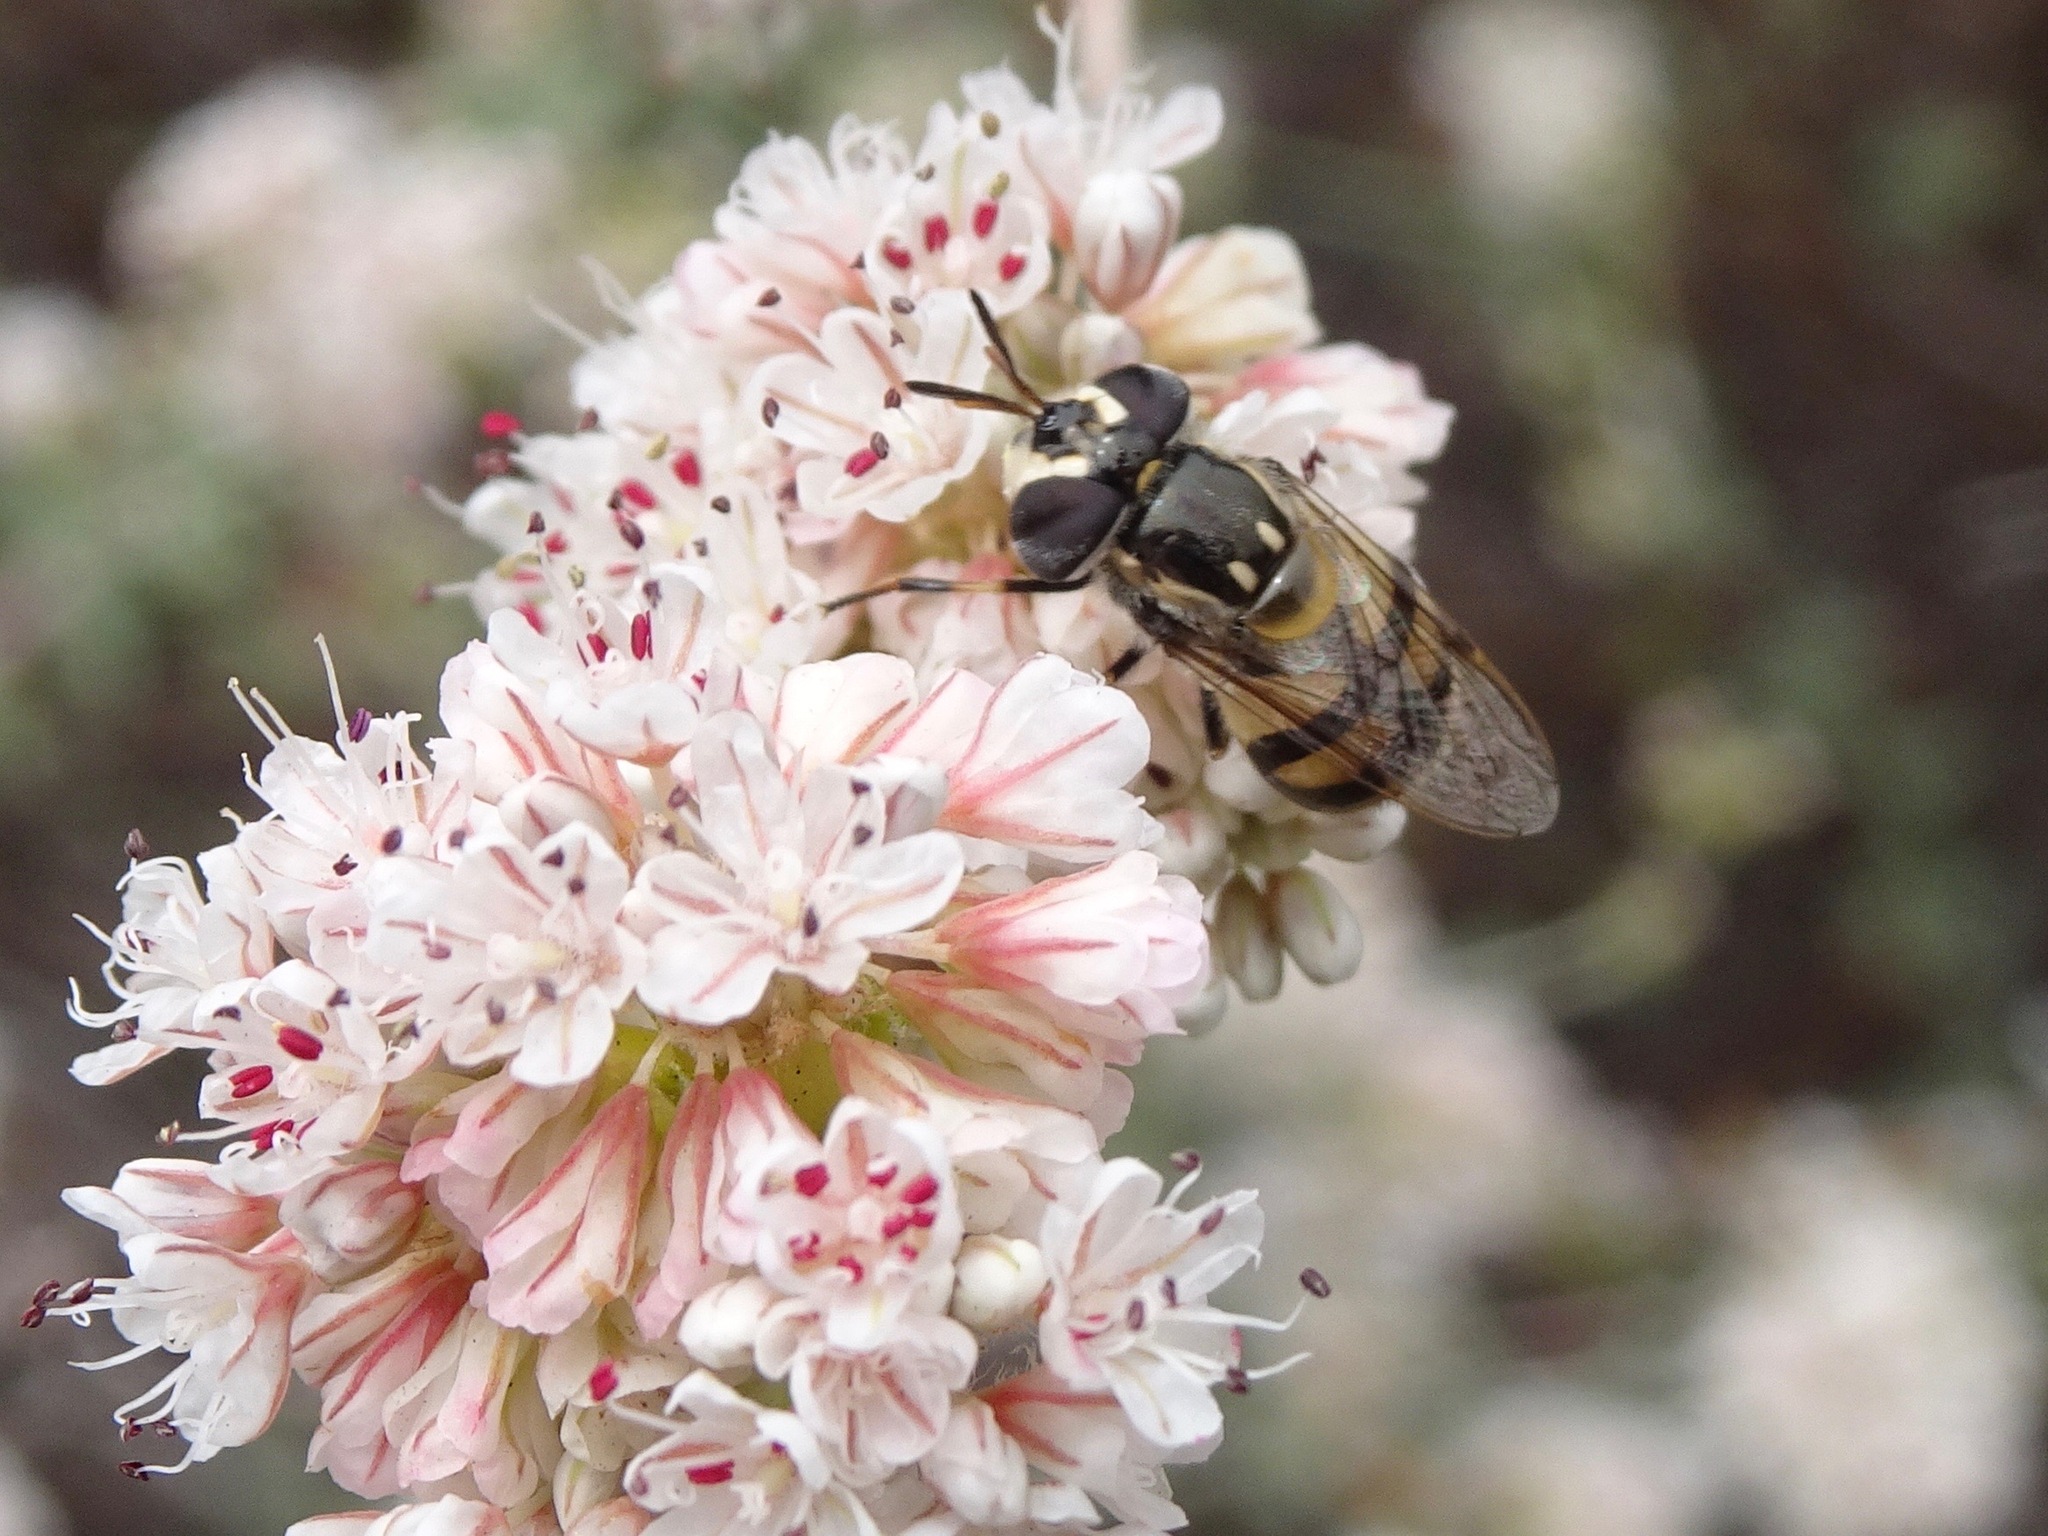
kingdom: Animalia
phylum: Arthropoda
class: Insecta
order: Diptera
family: Syrphidae
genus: Copestylum
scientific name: Copestylum marginatum
